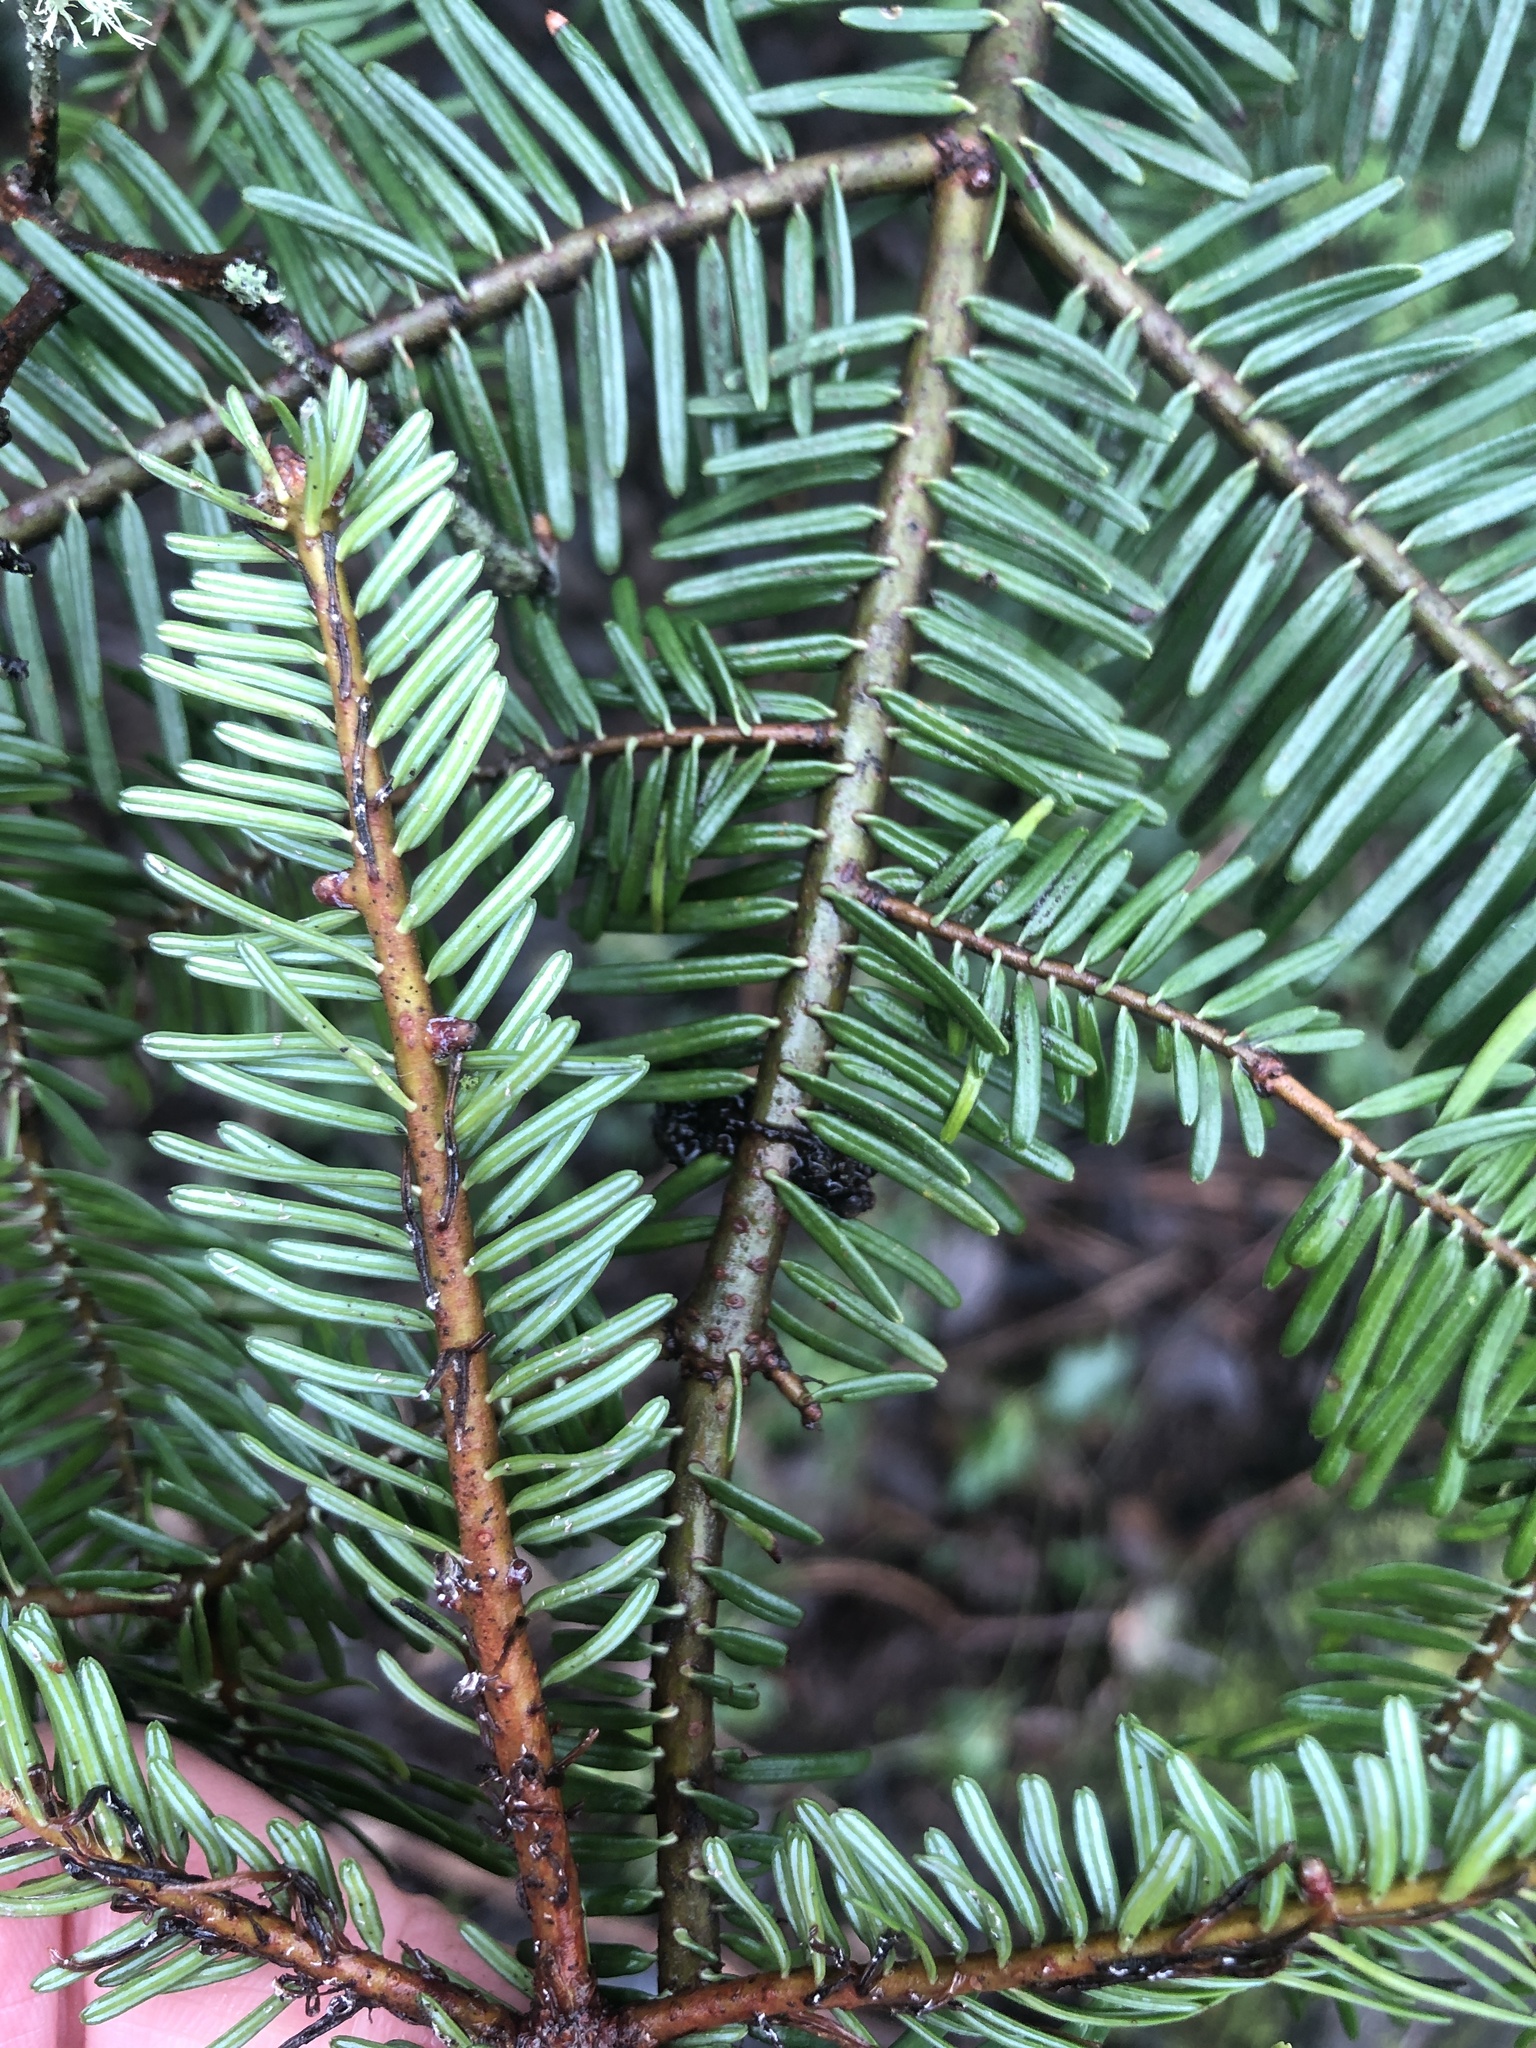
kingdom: Plantae
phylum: Tracheophyta
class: Pinopsida
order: Pinales
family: Pinaceae
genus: Abies
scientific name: Abies grandis
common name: Giant fir
